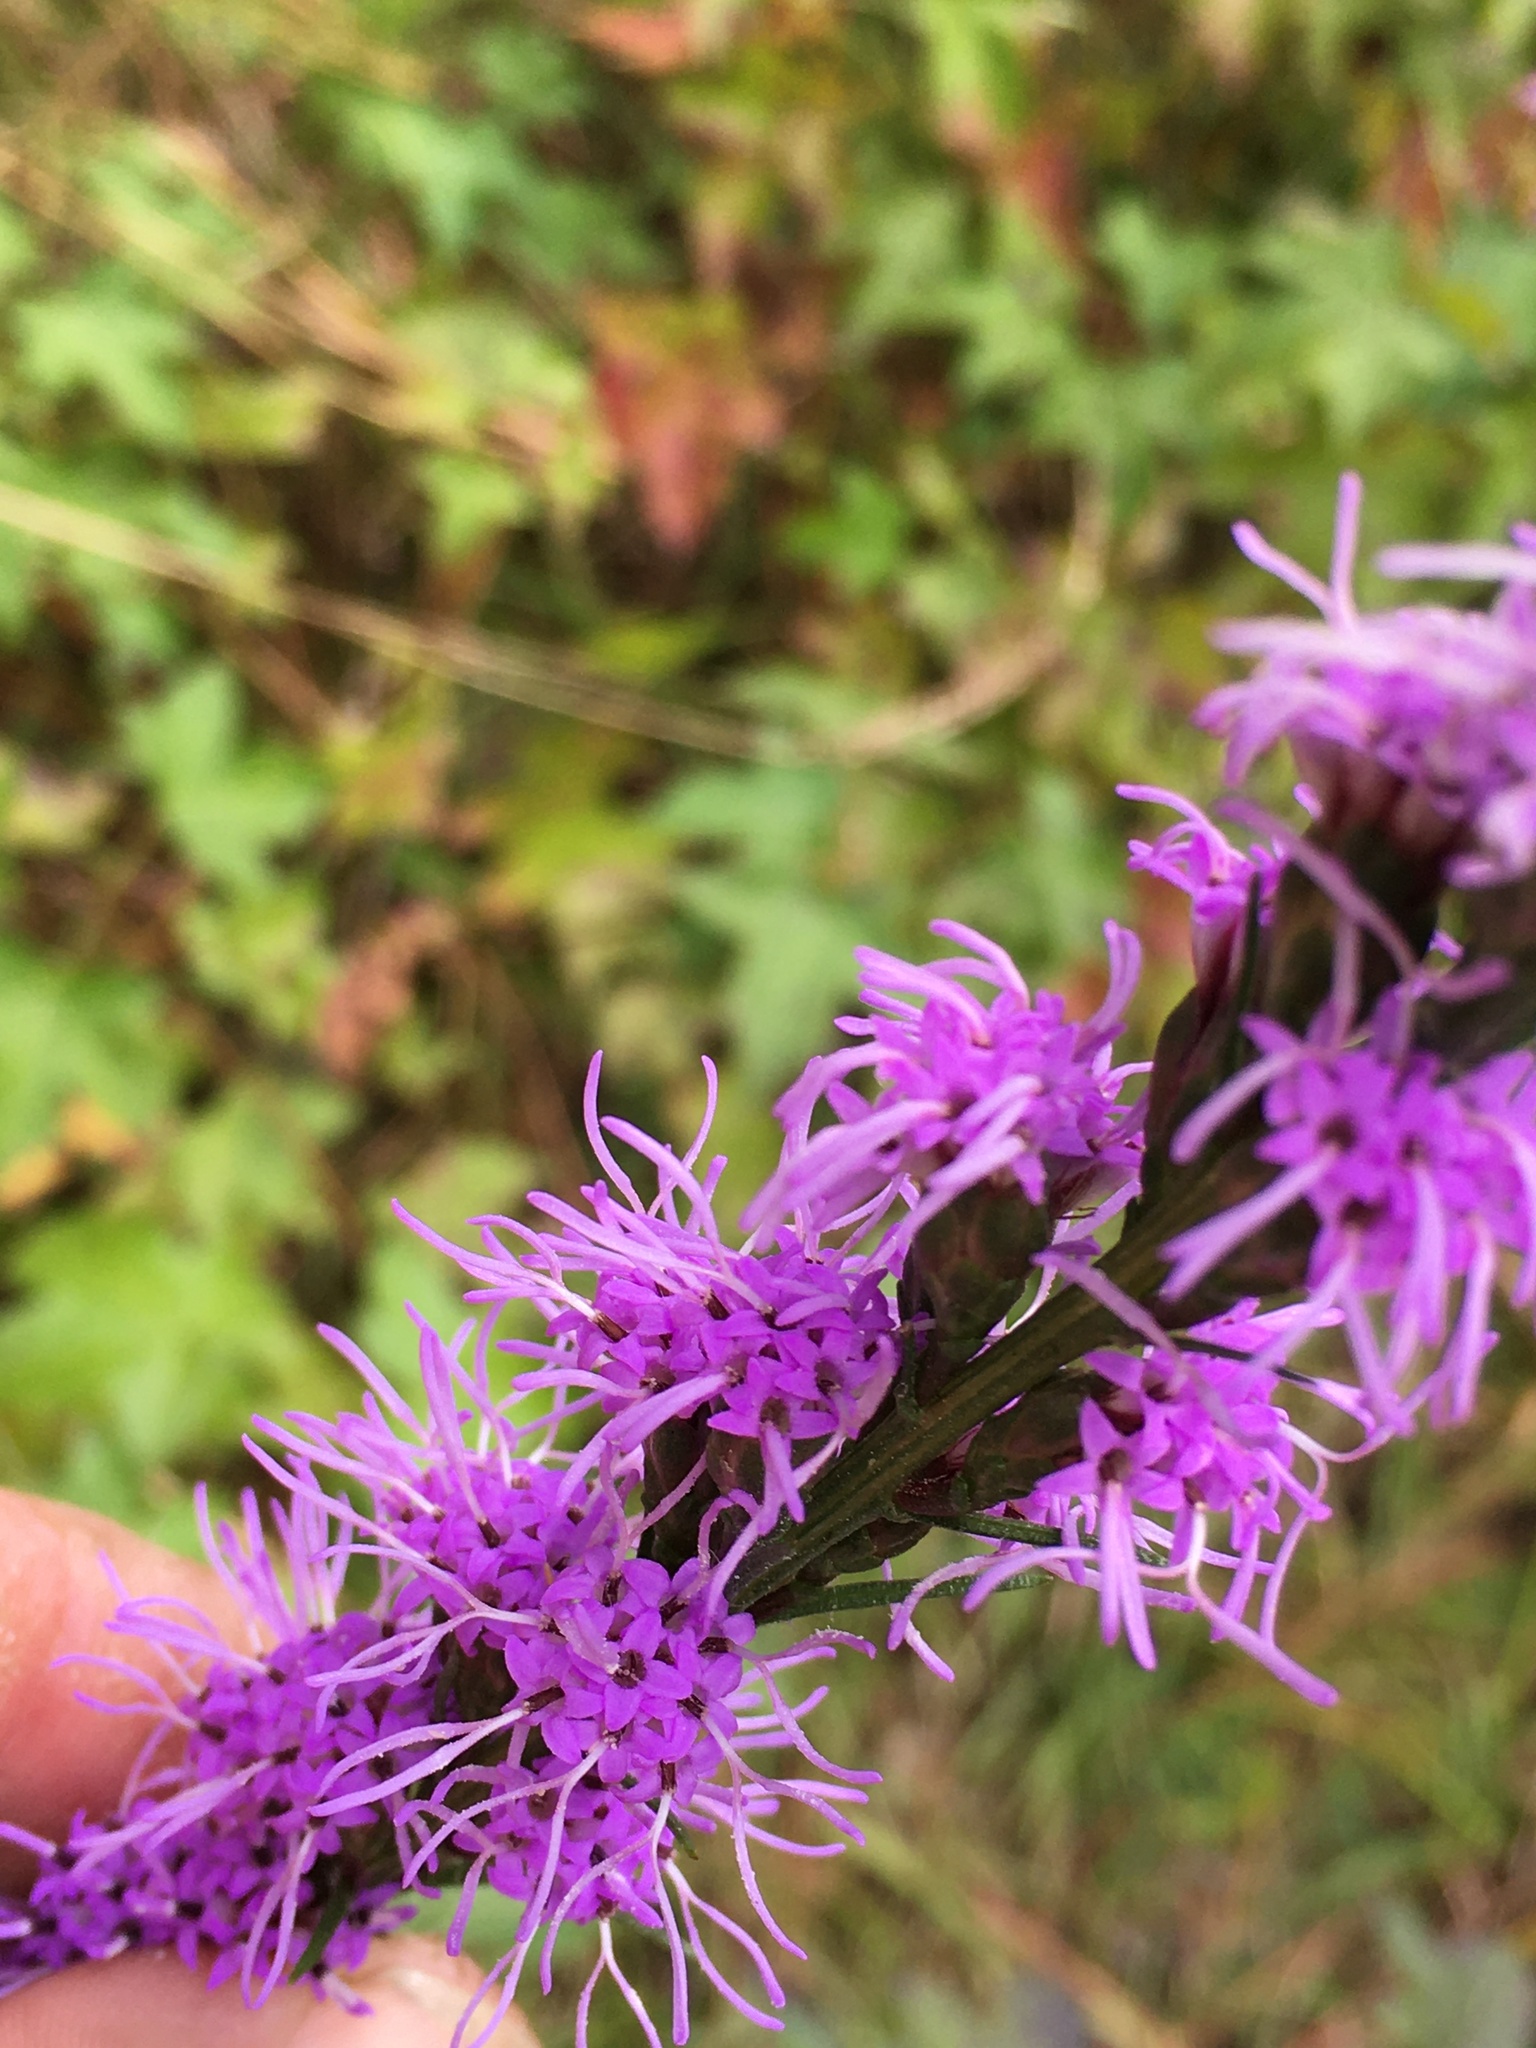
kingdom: Plantae
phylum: Tracheophyta
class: Magnoliopsida
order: Asterales
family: Asteraceae
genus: Liatris
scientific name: Liatris pilosa
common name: Grass-leaf gayfeather
